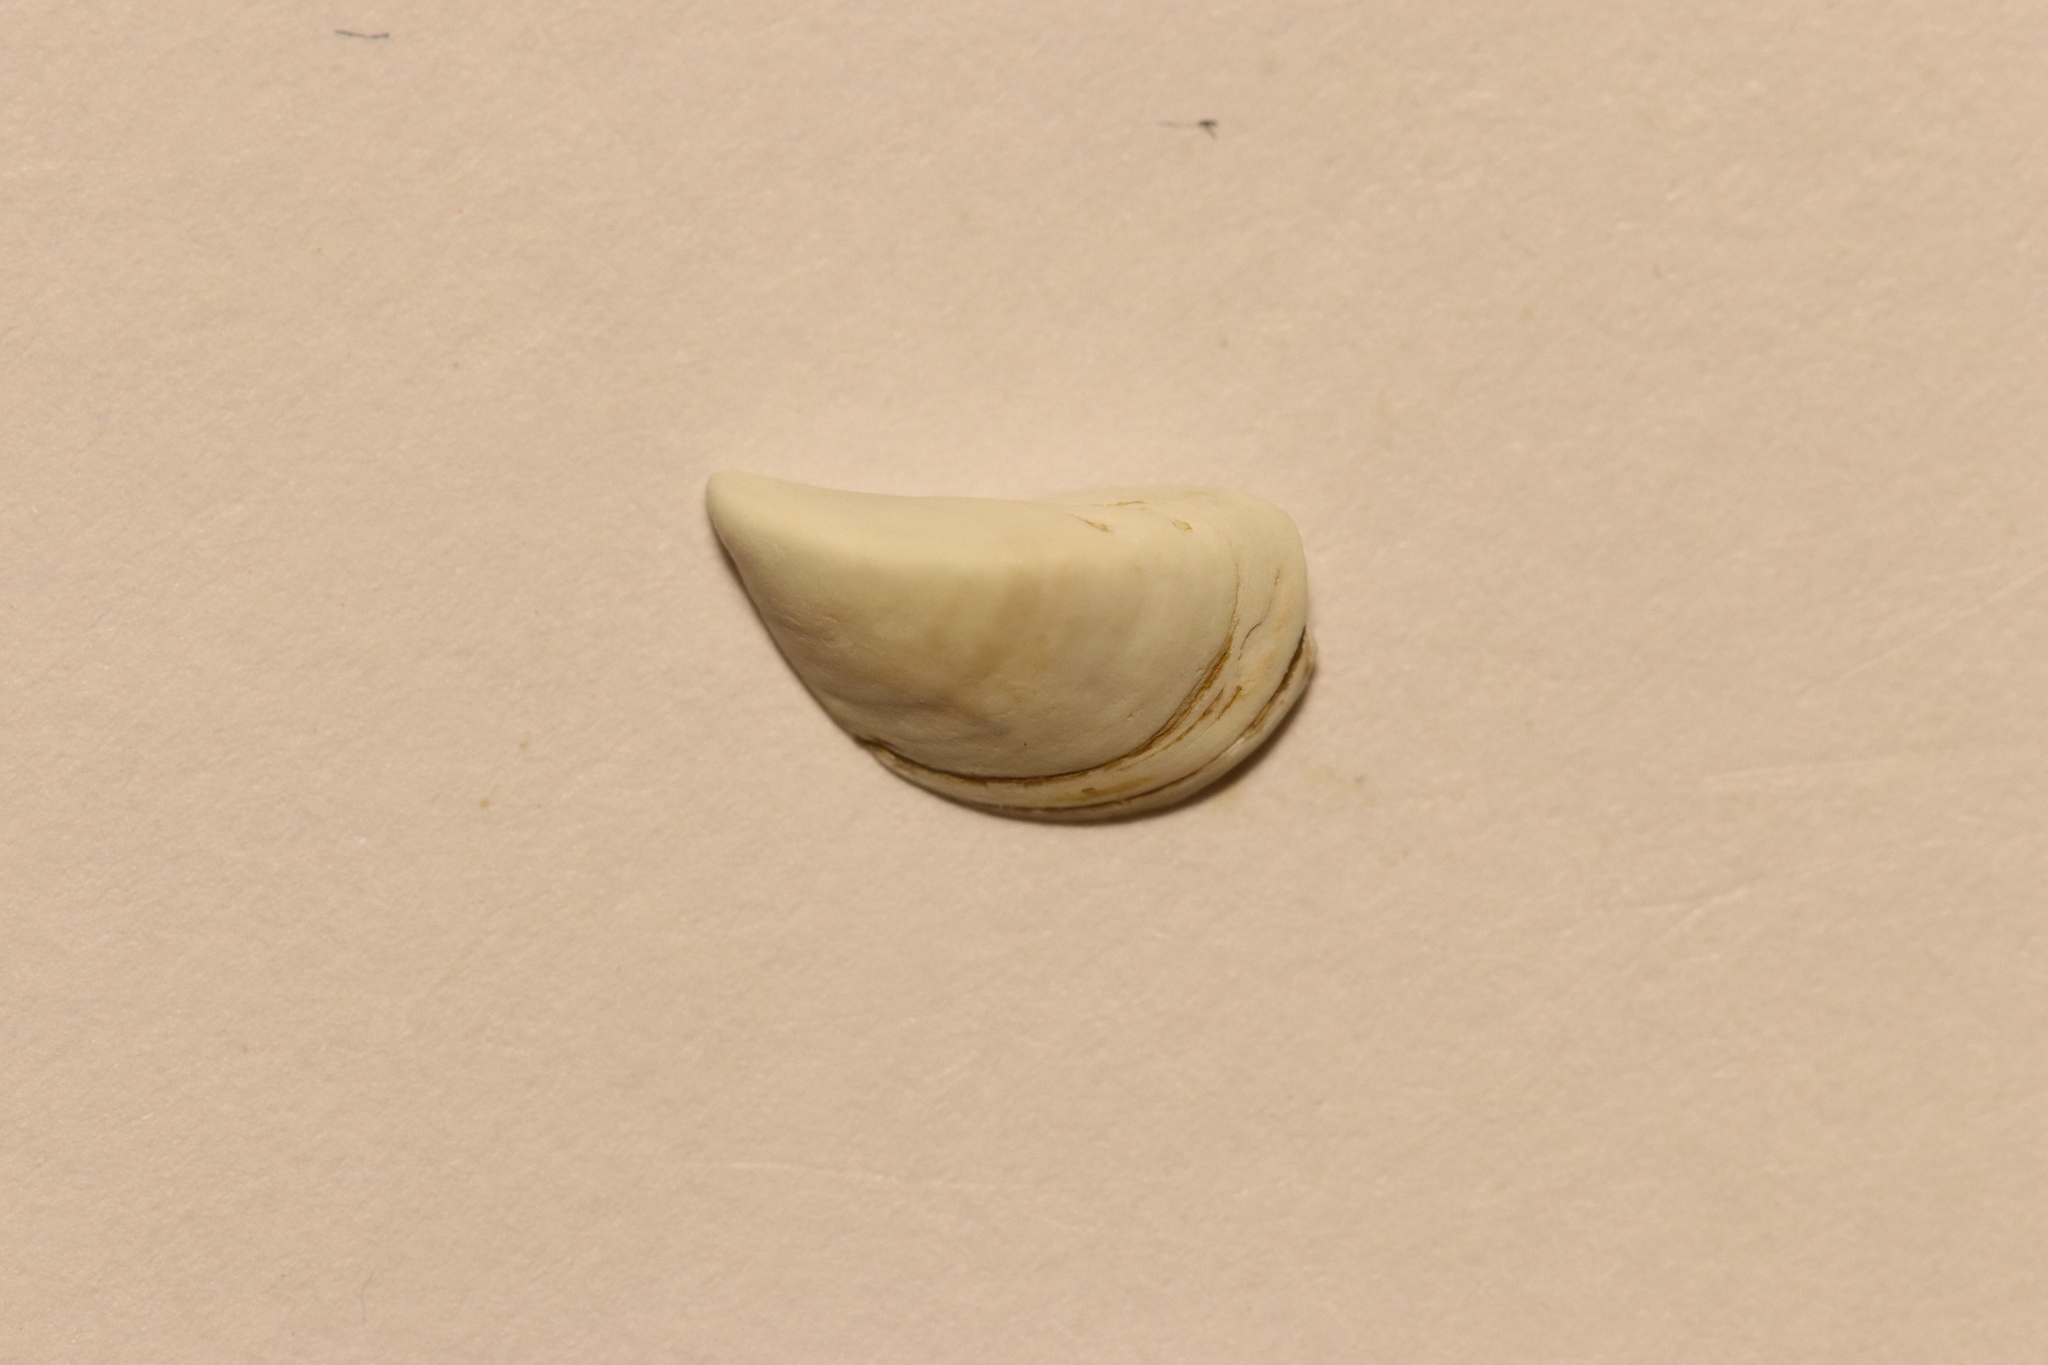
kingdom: Animalia
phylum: Mollusca
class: Bivalvia
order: Myida
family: Dreissenidae
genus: Dreissena
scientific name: Dreissena polymorpha
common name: Zebra mussel
